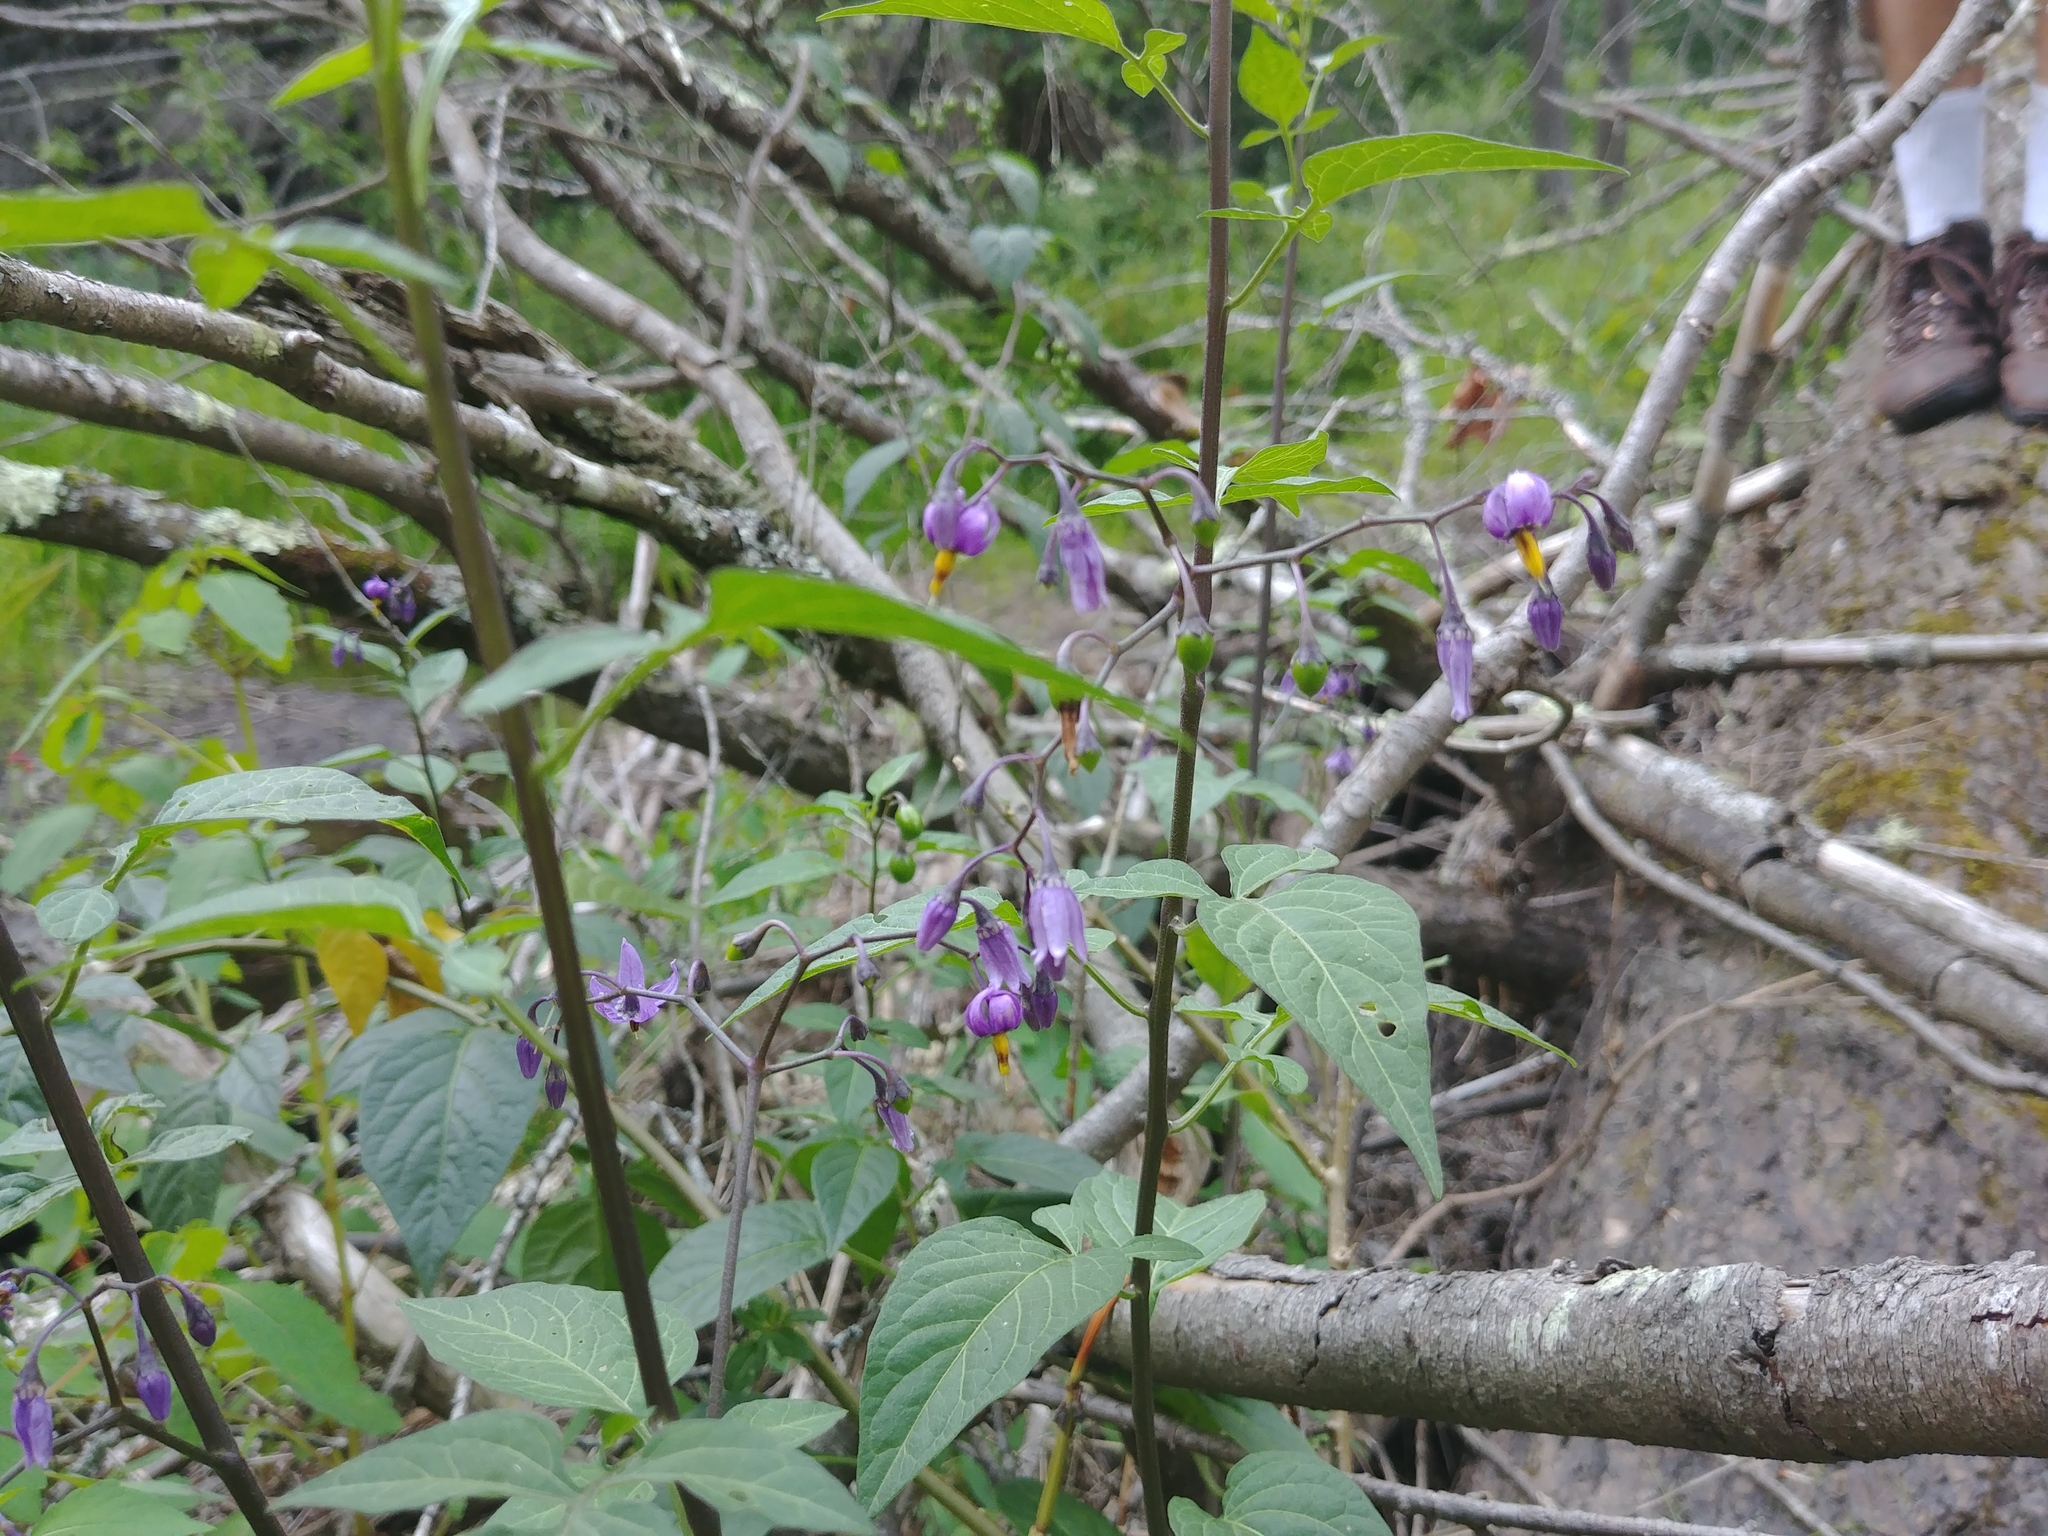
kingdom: Plantae
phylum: Tracheophyta
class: Magnoliopsida
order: Solanales
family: Solanaceae
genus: Solanum
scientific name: Solanum dulcamara
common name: Climbing nightshade
